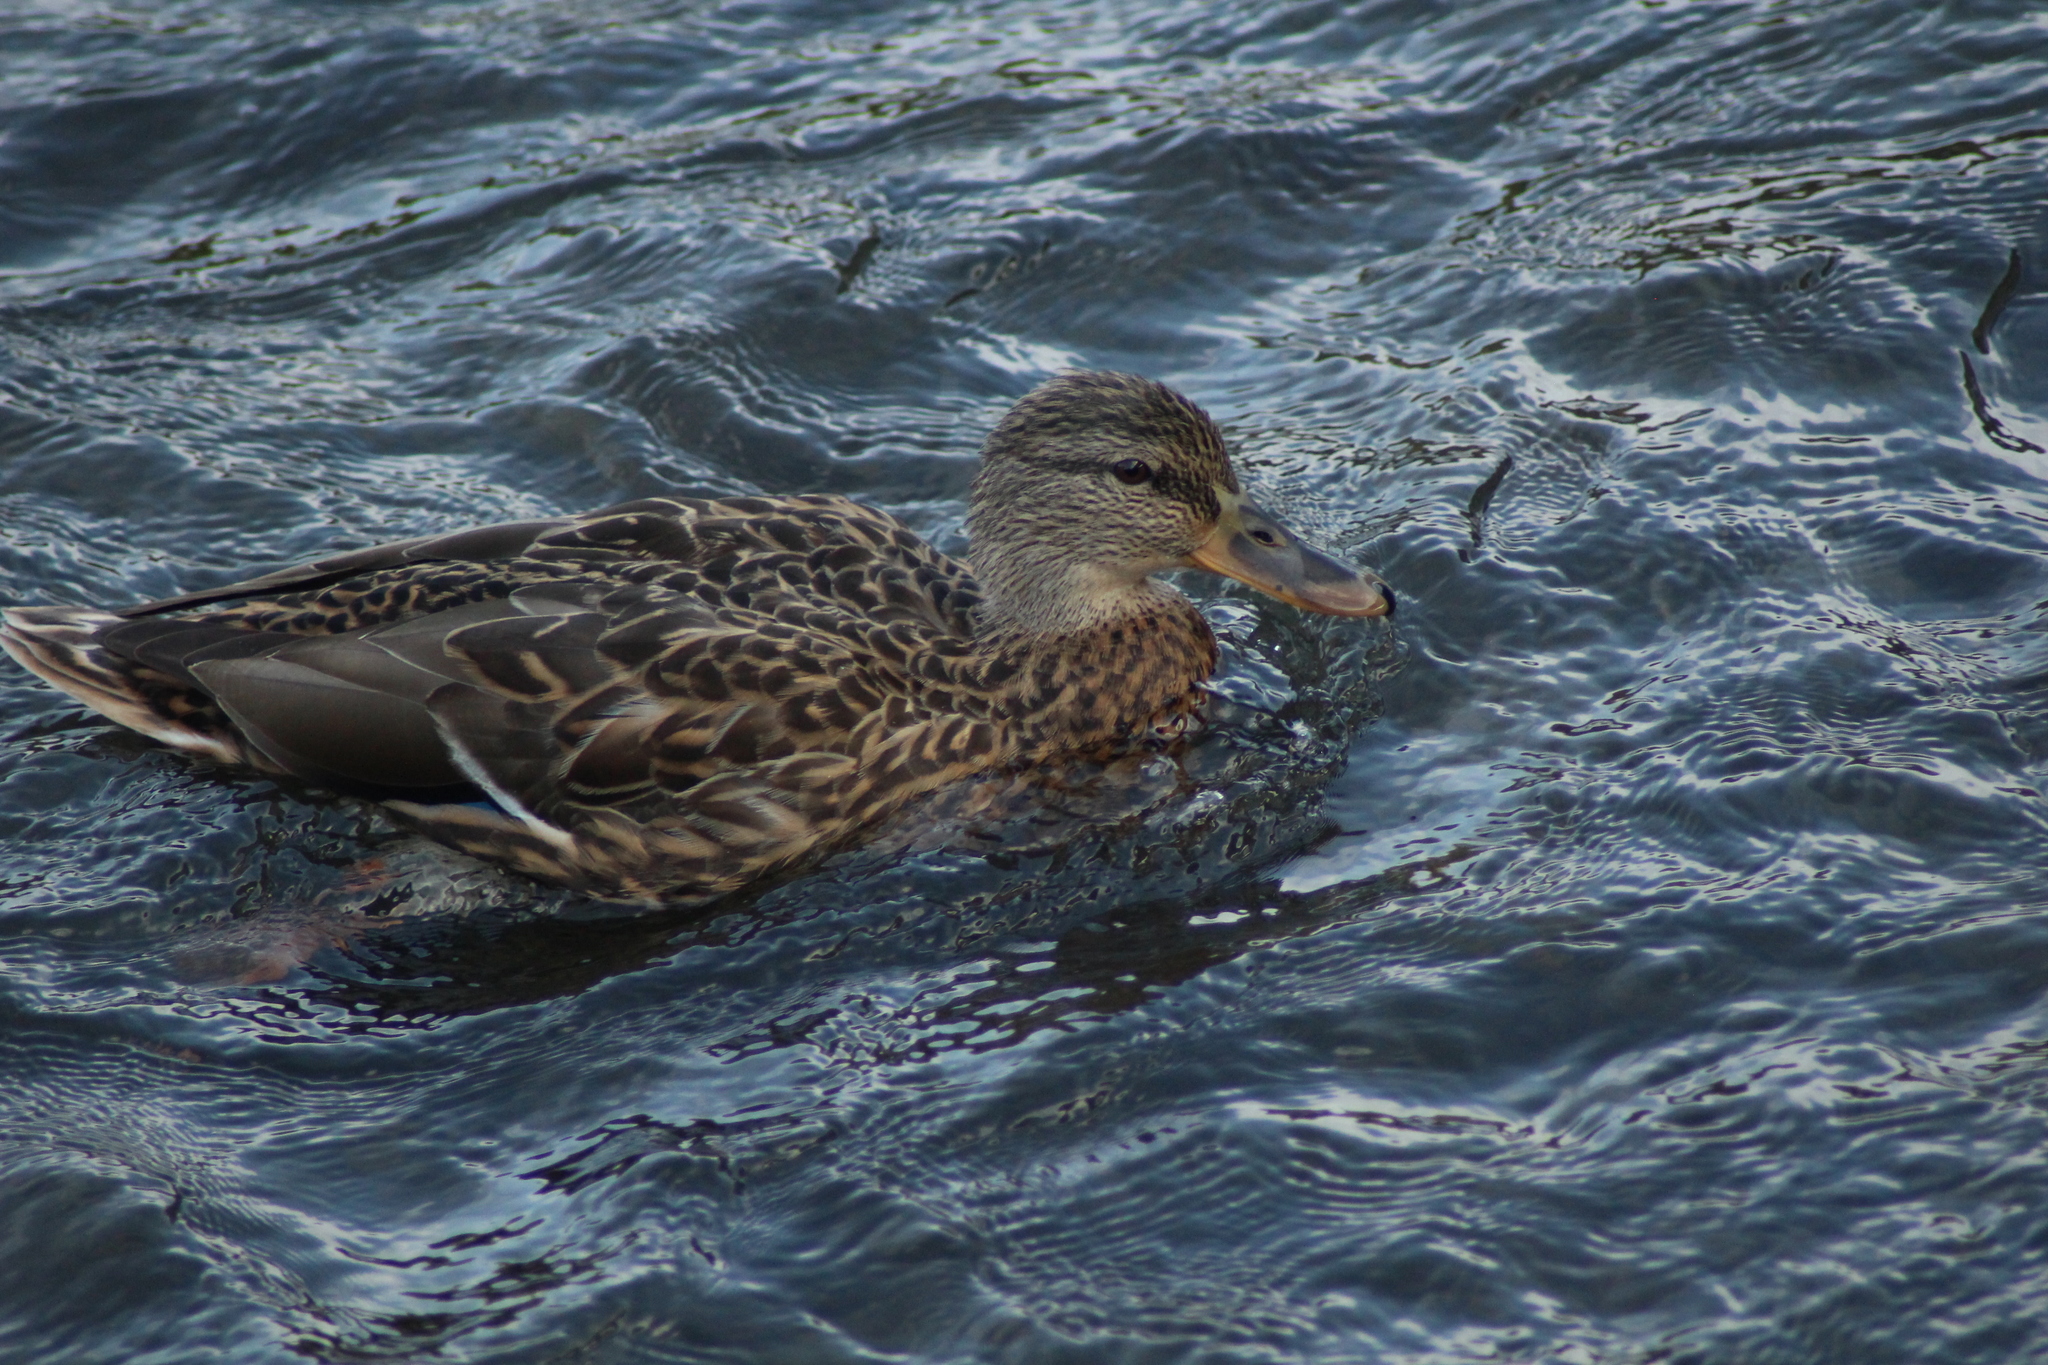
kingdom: Animalia
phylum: Chordata
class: Aves
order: Anseriformes
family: Anatidae
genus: Anas
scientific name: Anas platyrhynchos
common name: Mallard
